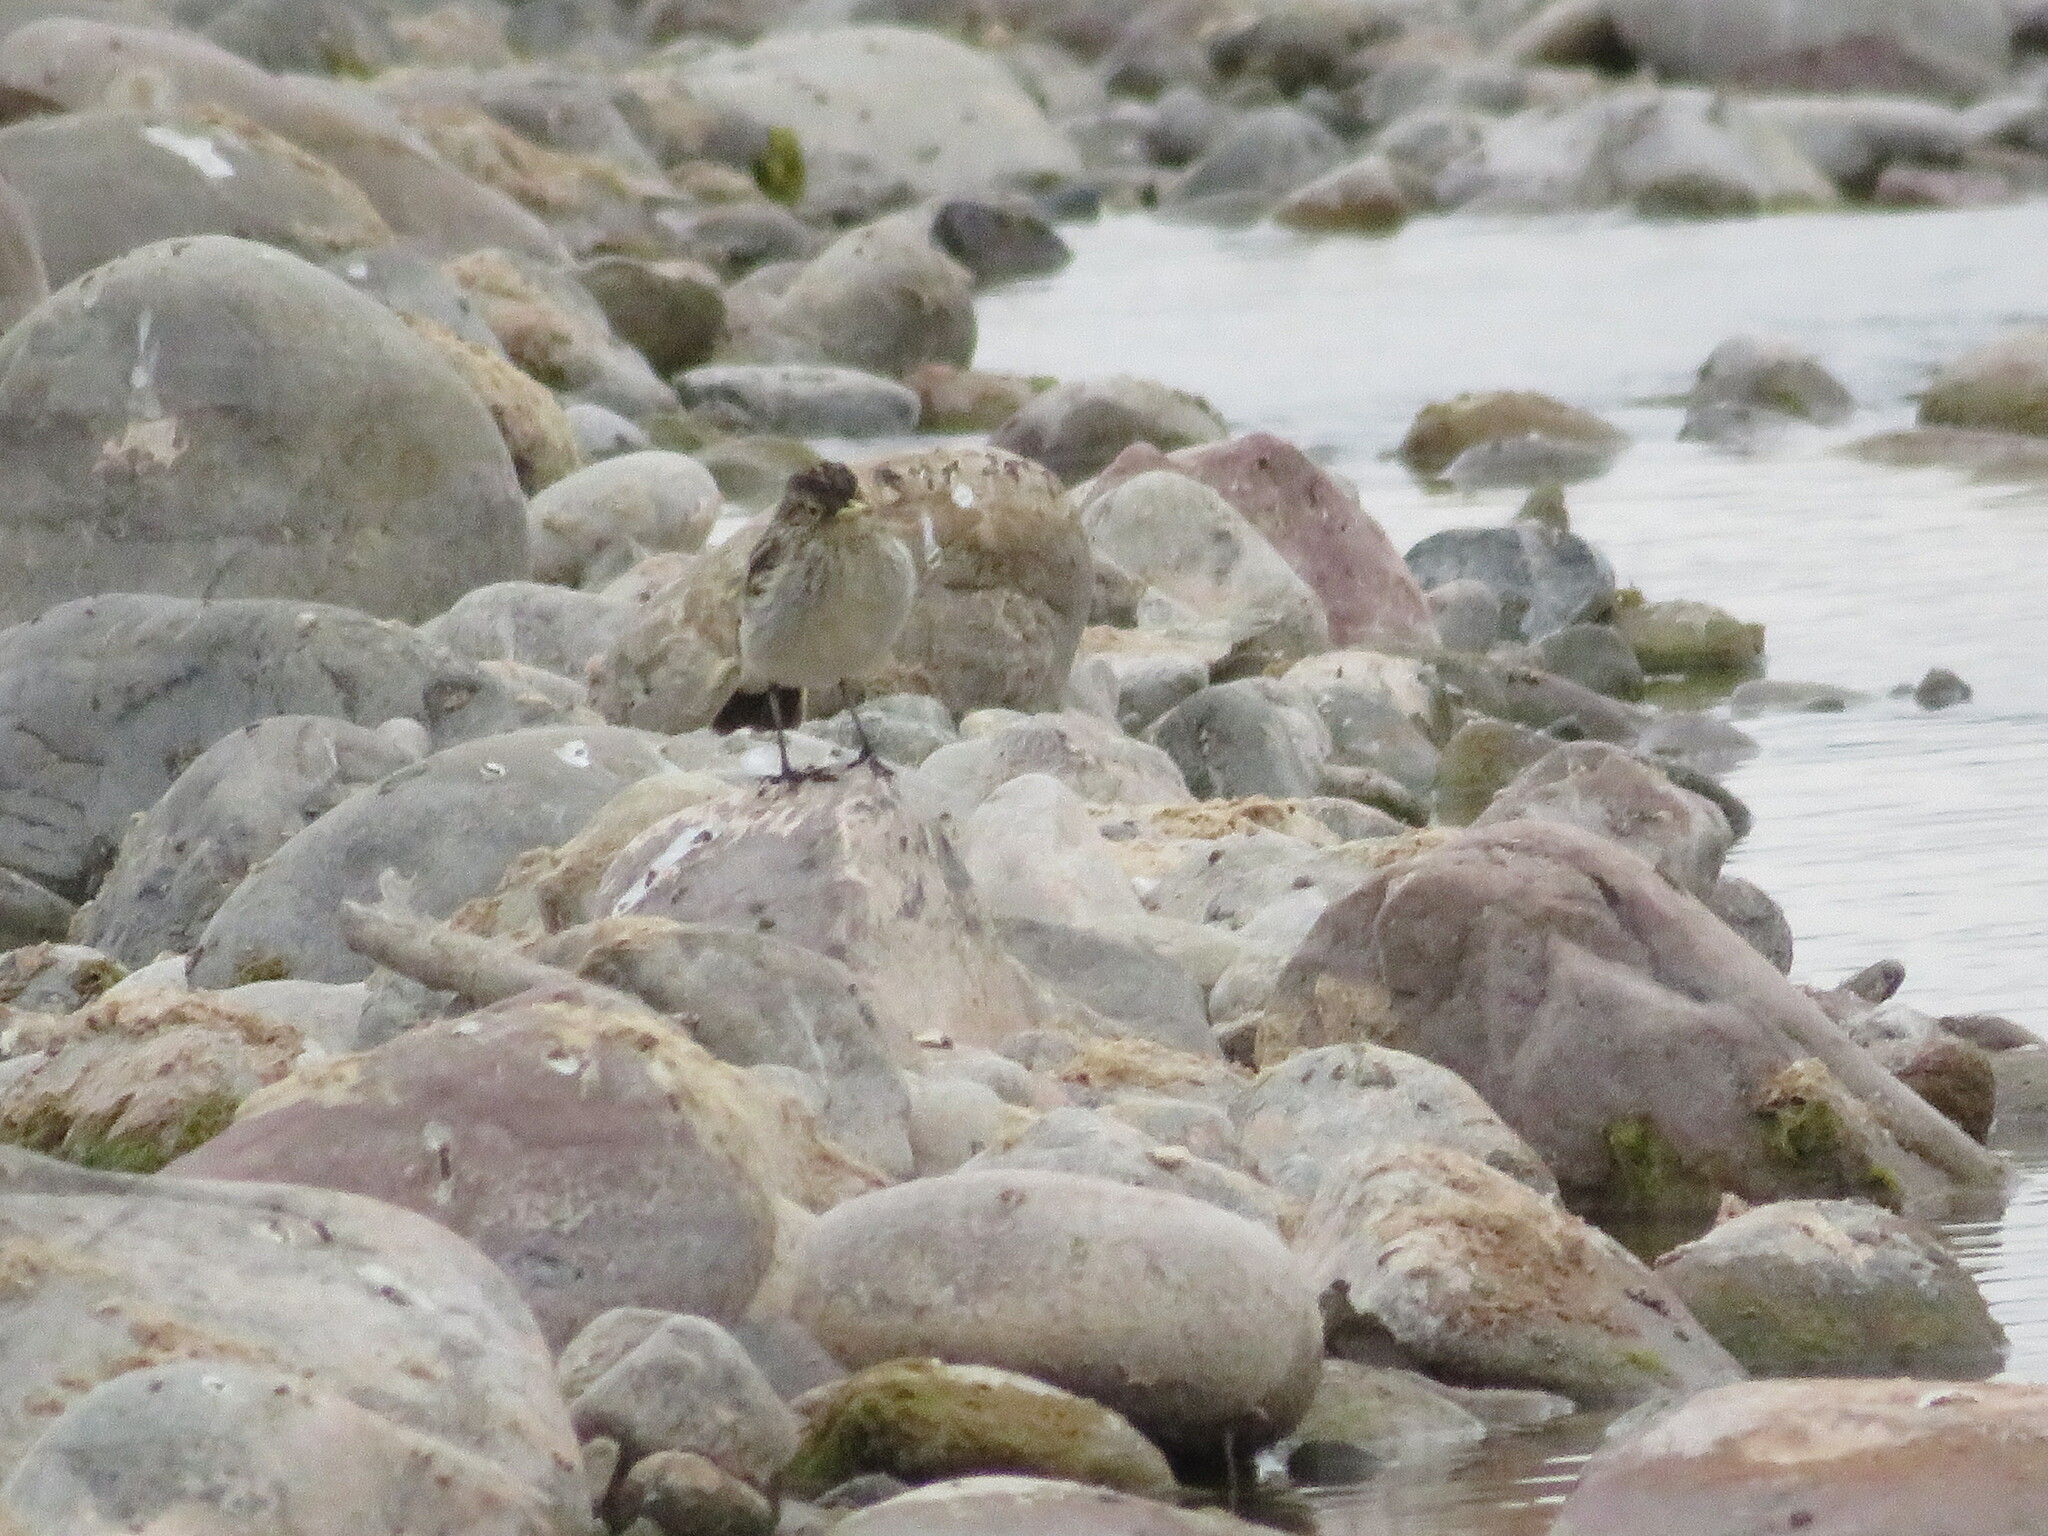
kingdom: Animalia
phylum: Chordata
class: Aves
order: Passeriformes
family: Tyrannidae
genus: Hymenops
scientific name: Hymenops perspicillatus
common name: Spectacled tyrant
